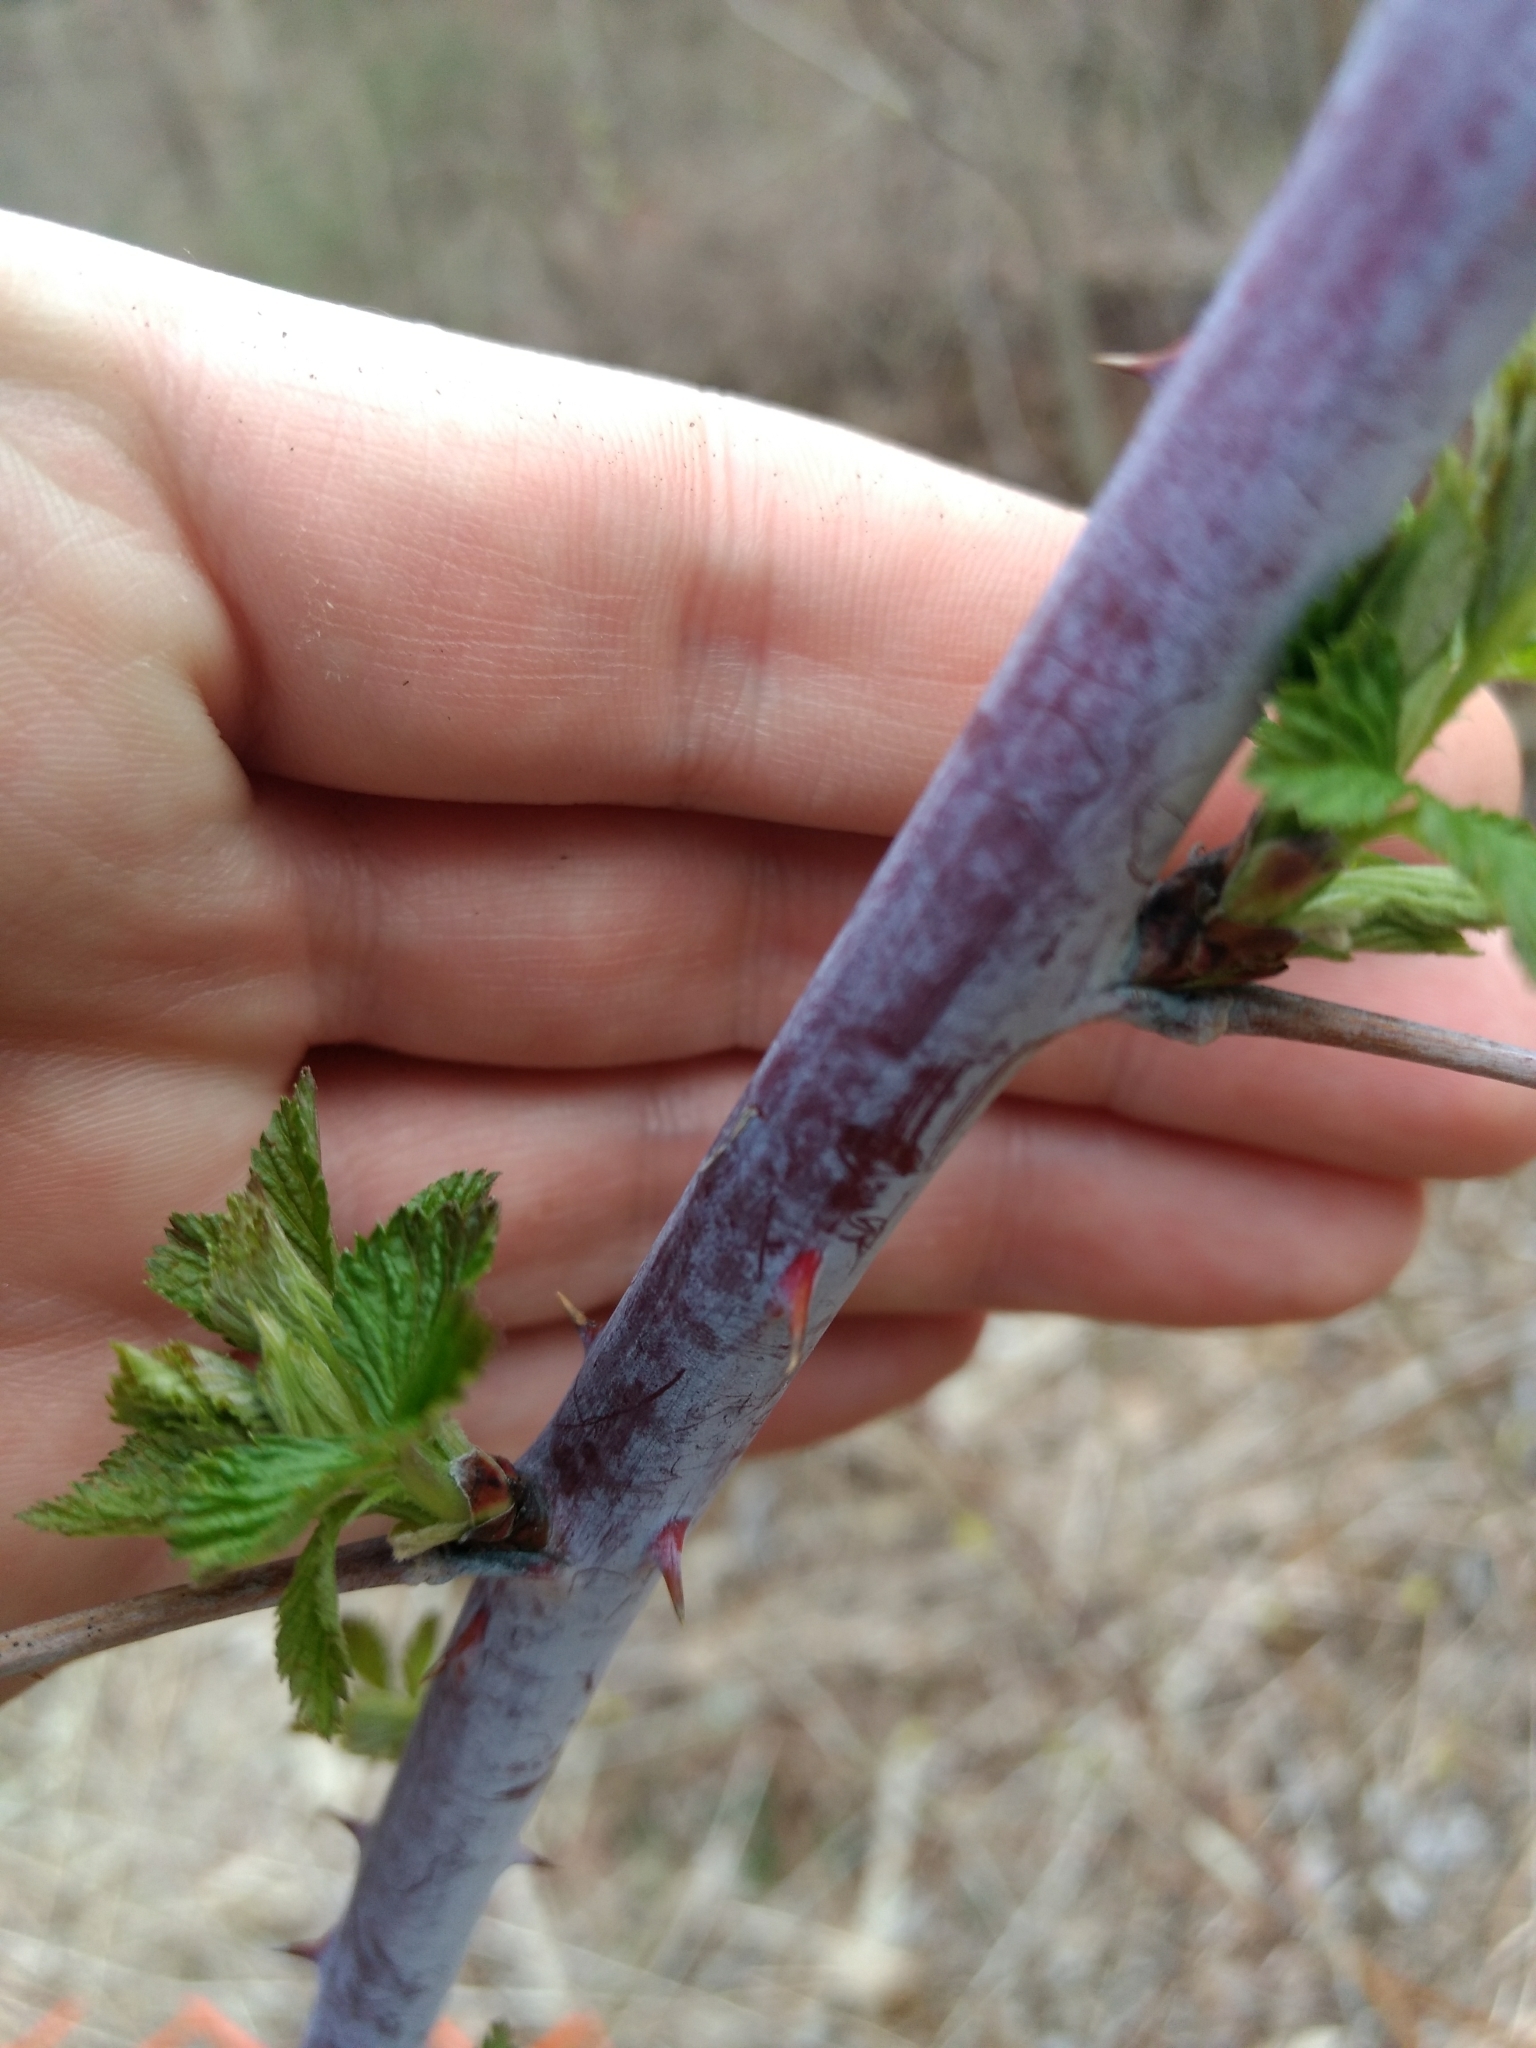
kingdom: Plantae
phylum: Tracheophyta
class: Magnoliopsida
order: Rosales
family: Rosaceae
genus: Rubus
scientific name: Rubus occidentalis
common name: Black raspberry
